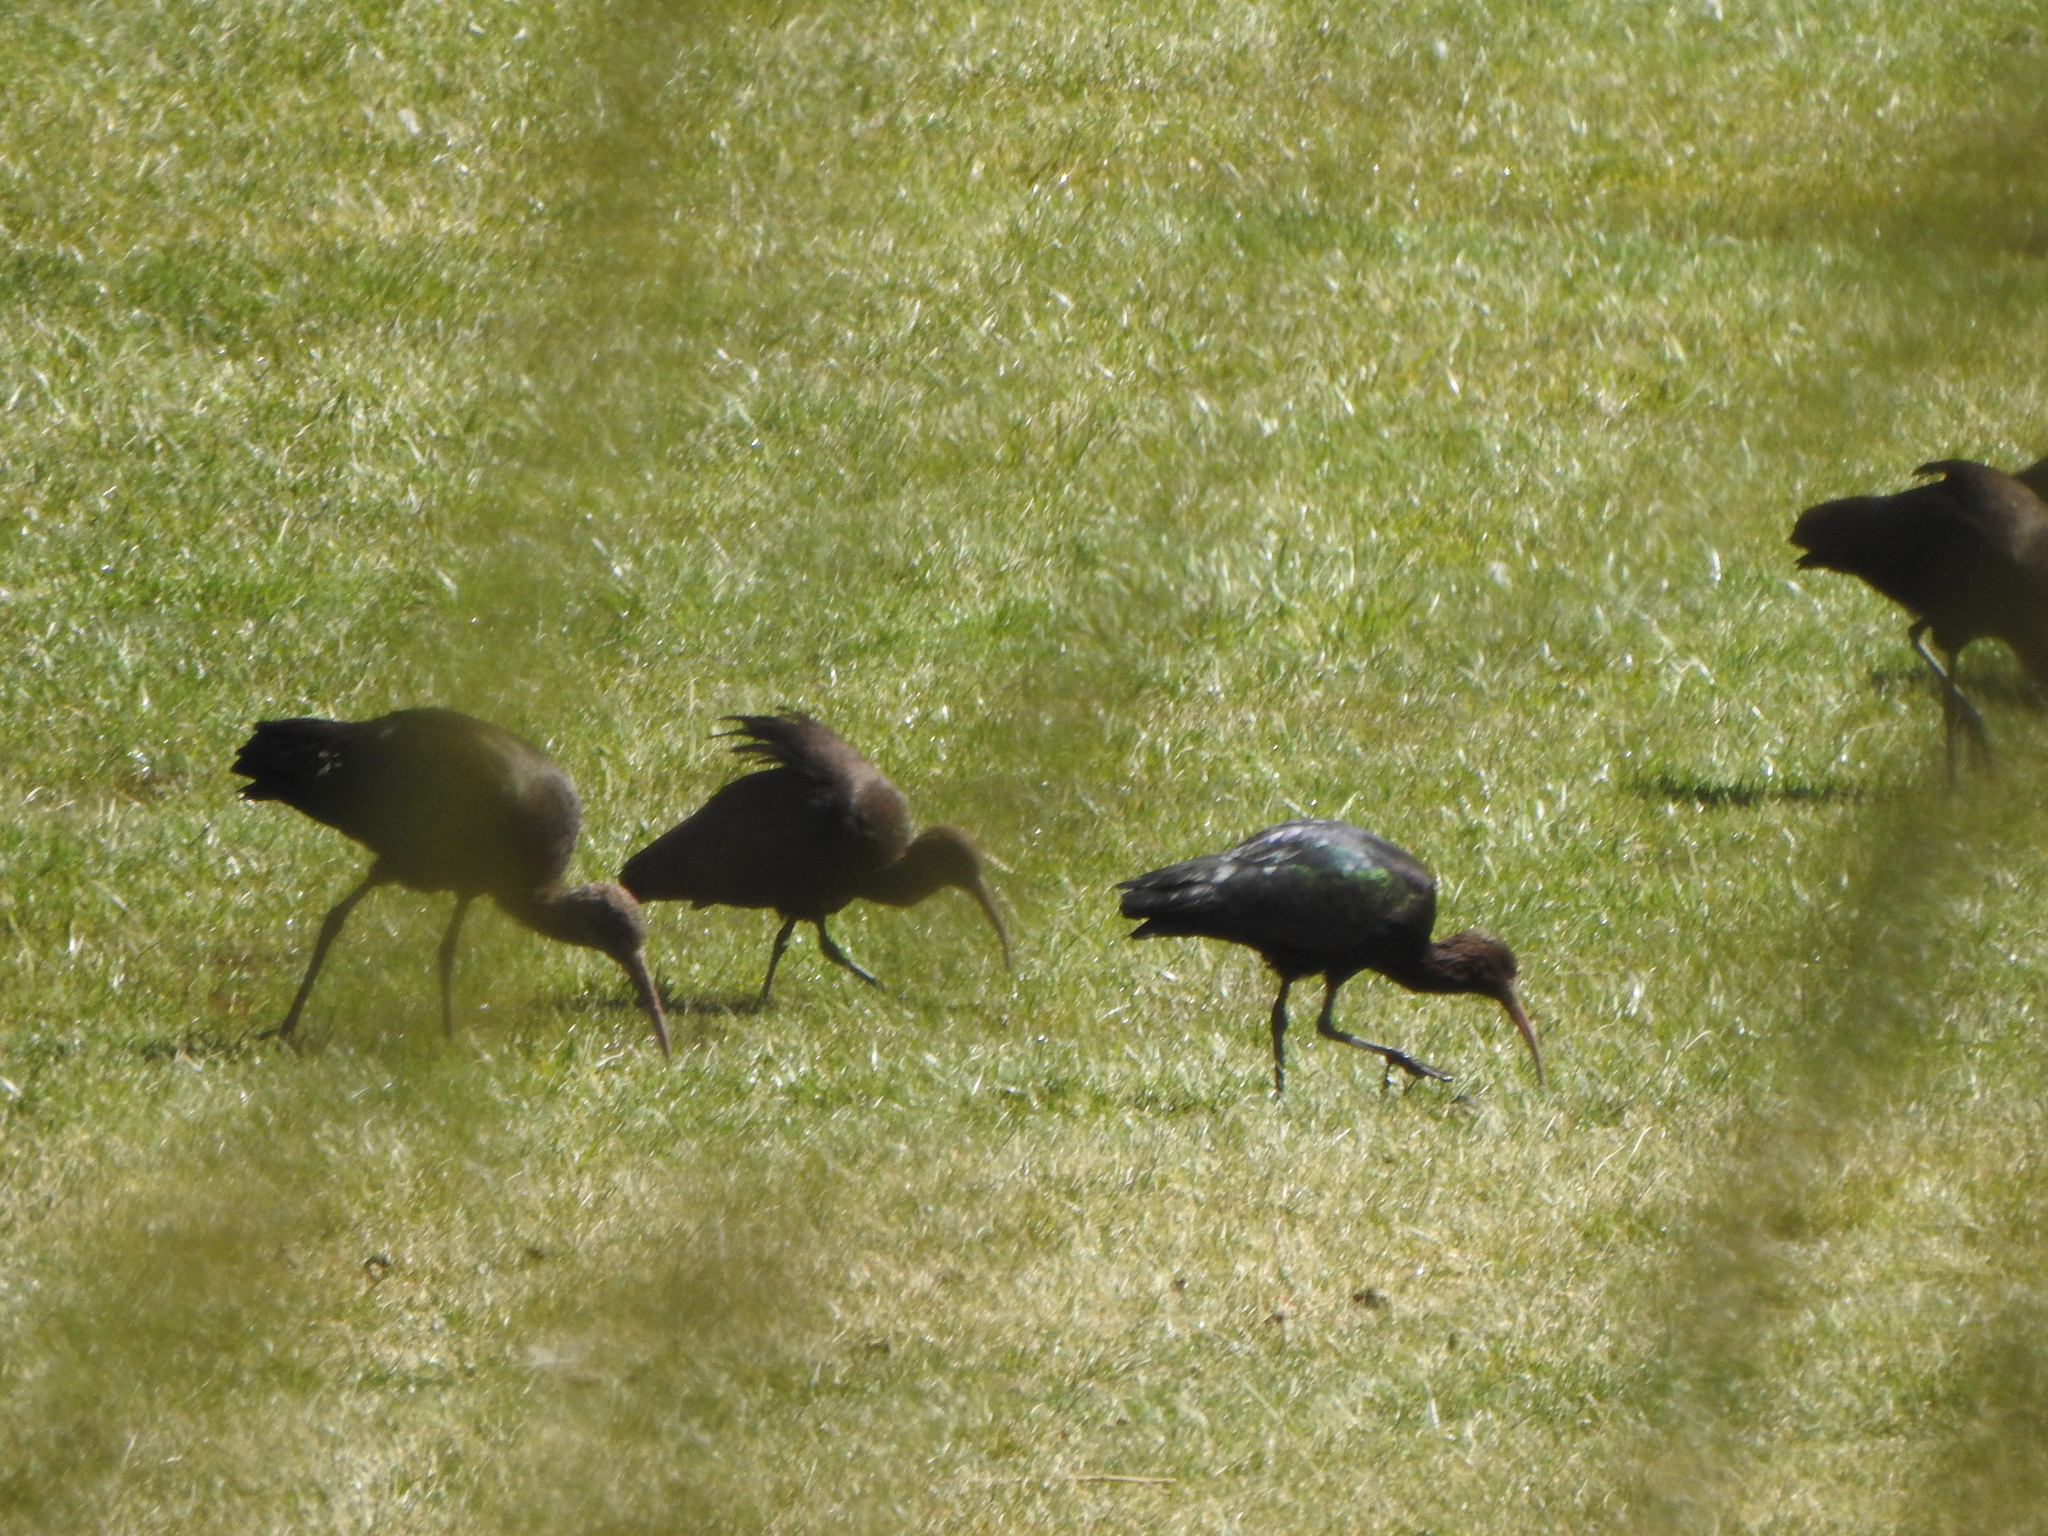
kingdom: Animalia
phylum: Chordata
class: Aves
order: Pelecaniformes
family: Threskiornithidae
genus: Plegadis
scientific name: Plegadis ridgwayi
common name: Puna ibis
